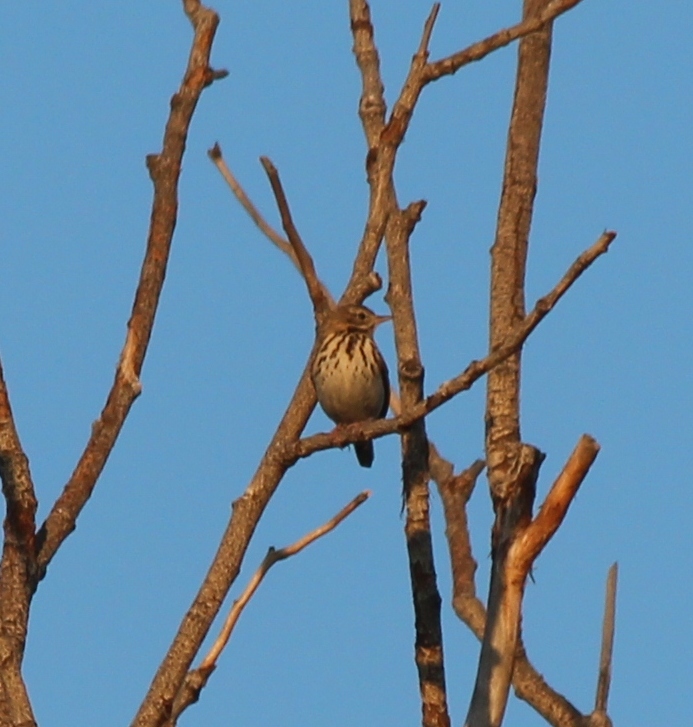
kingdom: Animalia
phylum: Chordata
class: Aves
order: Passeriformes
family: Motacillidae
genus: Anthus
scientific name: Anthus trivialis
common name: Tree pipit
